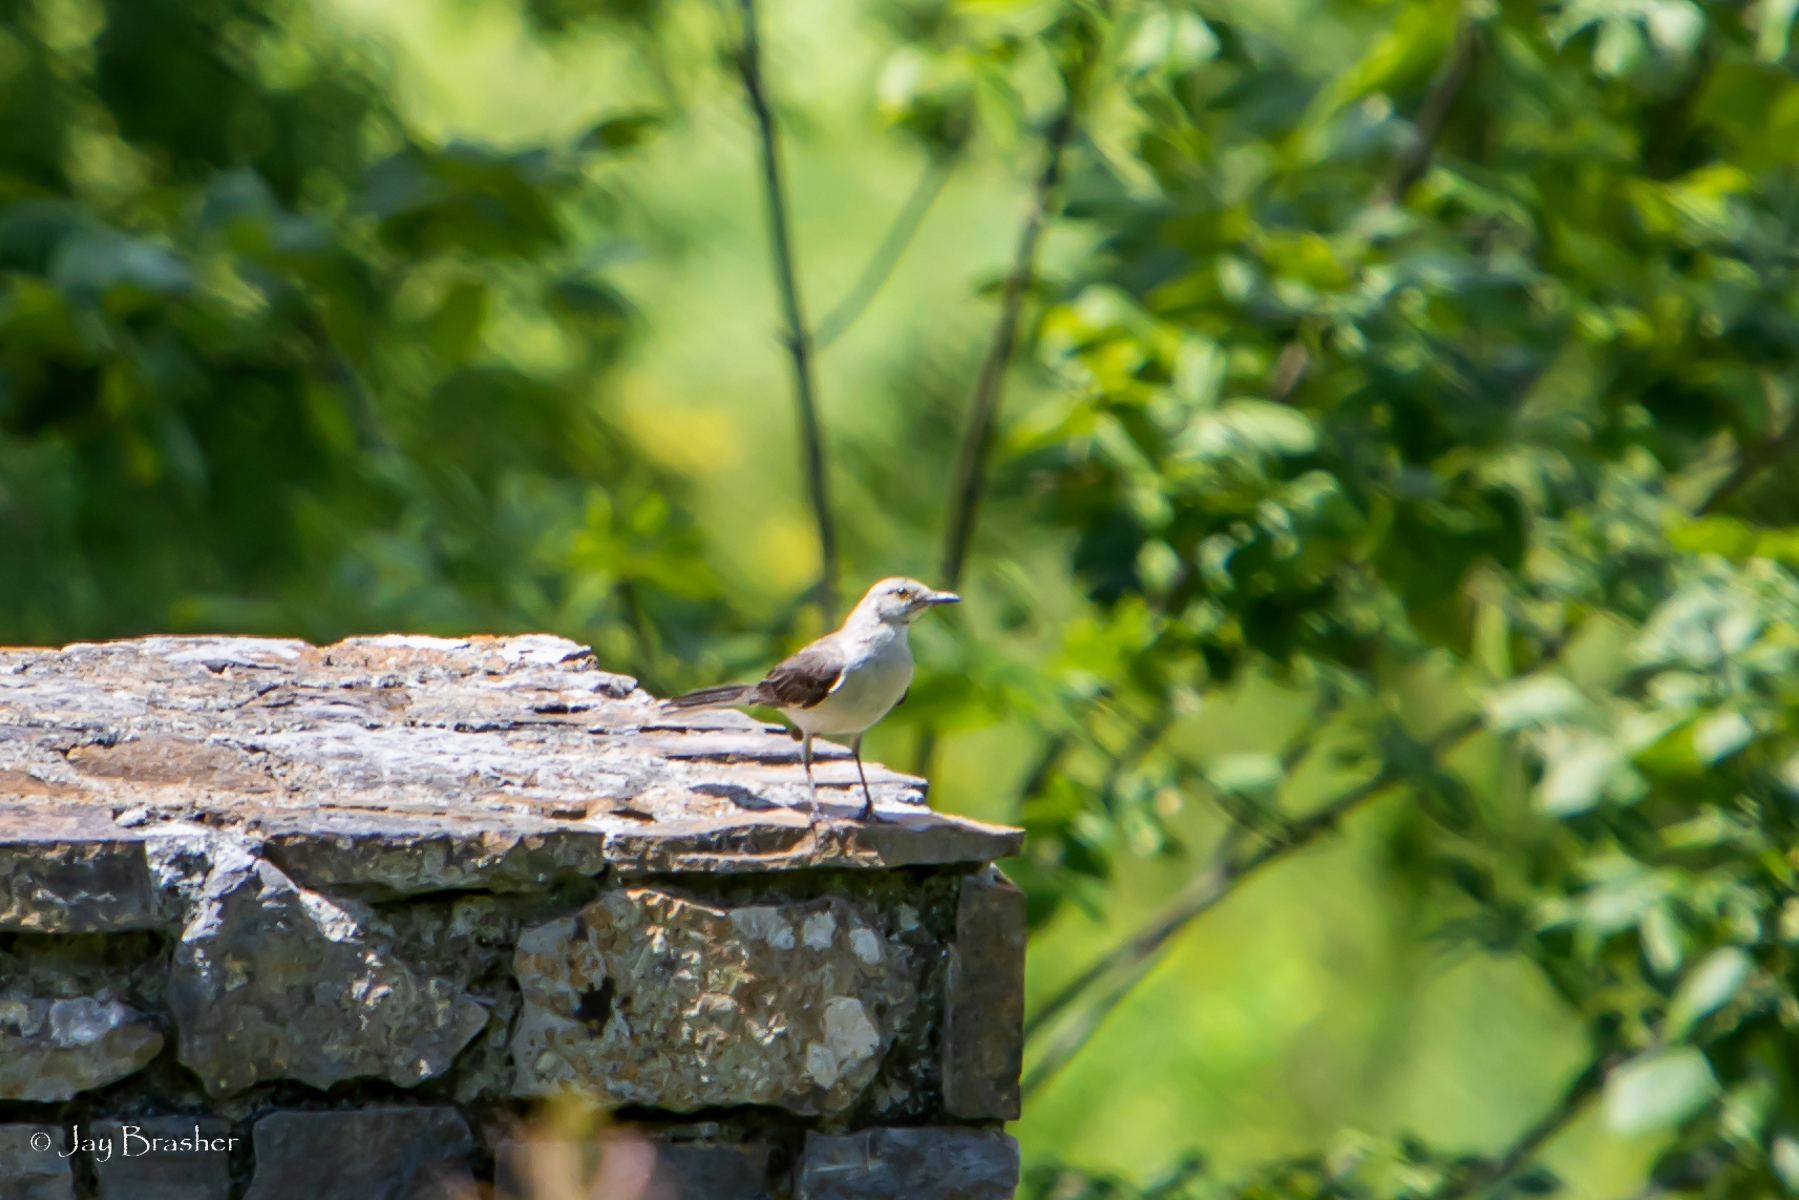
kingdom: Animalia
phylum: Chordata
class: Aves
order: Passeriformes
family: Mimidae
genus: Mimus
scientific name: Mimus polyglottos
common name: Northern mockingbird
